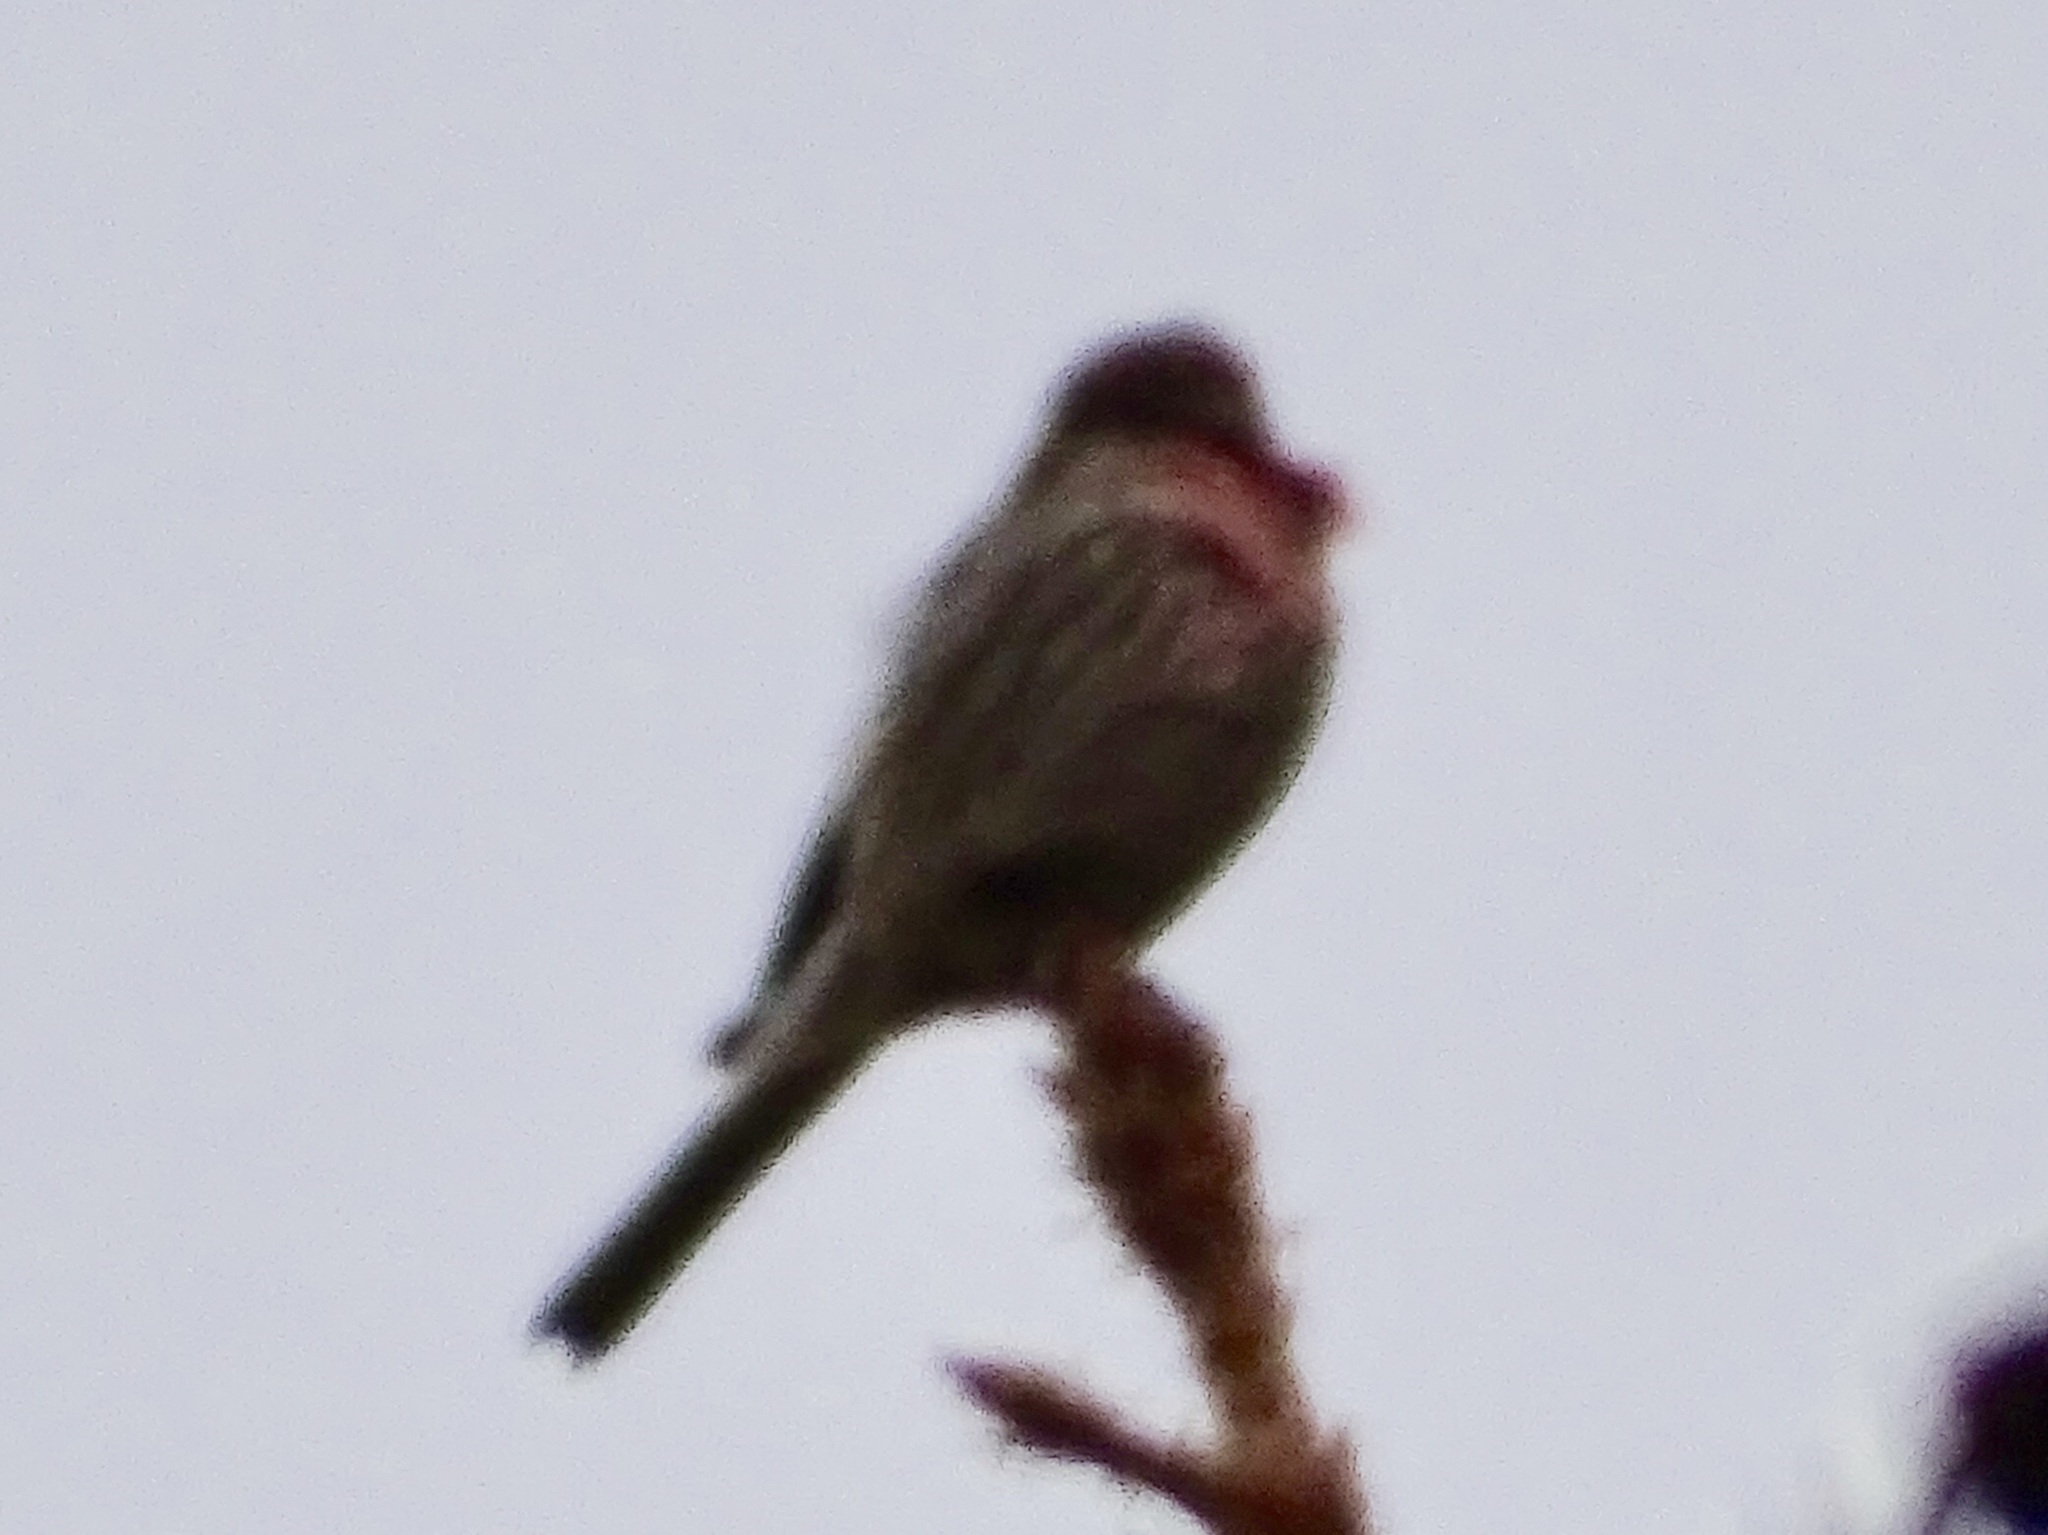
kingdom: Animalia
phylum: Chordata
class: Aves
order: Passeriformes
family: Fringillidae
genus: Haemorhous
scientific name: Haemorhous mexicanus
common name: House finch
